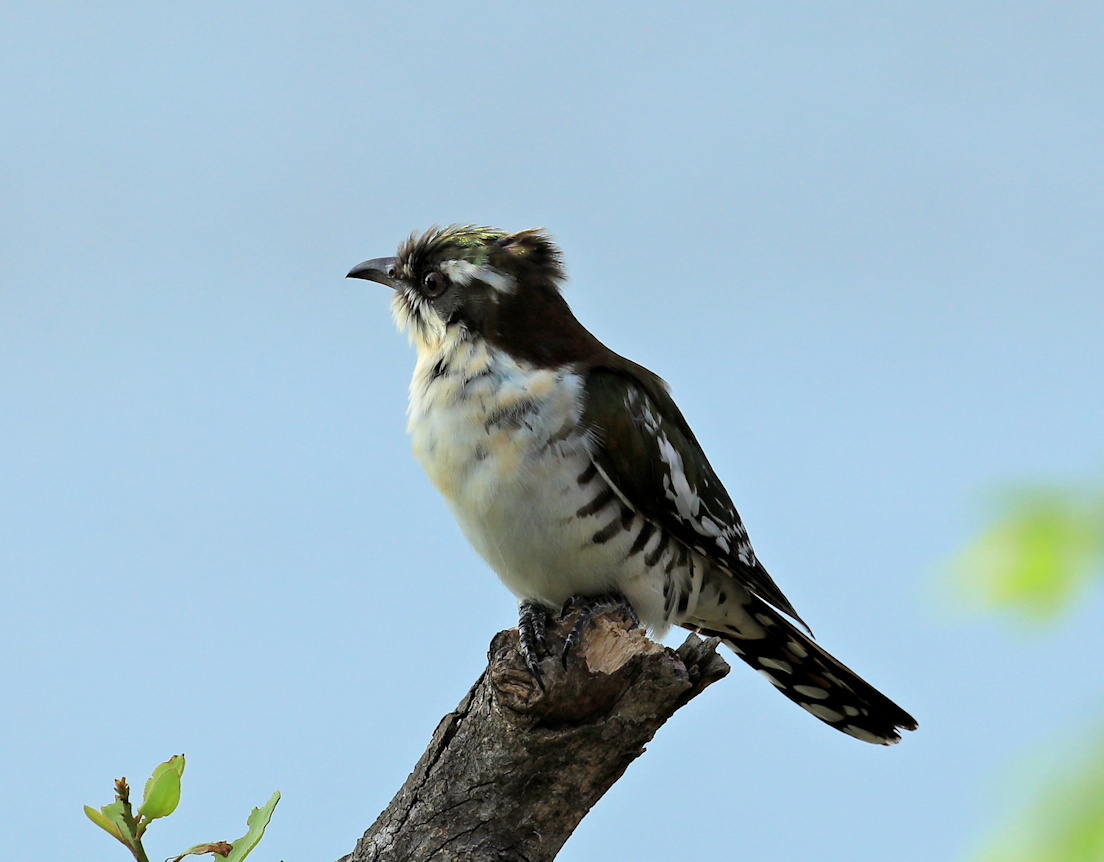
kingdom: Animalia
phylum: Chordata
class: Aves
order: Cuculiformes
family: Cuculidae
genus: Chrysococcyx
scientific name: Chrysococcyx caprius
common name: Diederik cuckoo
